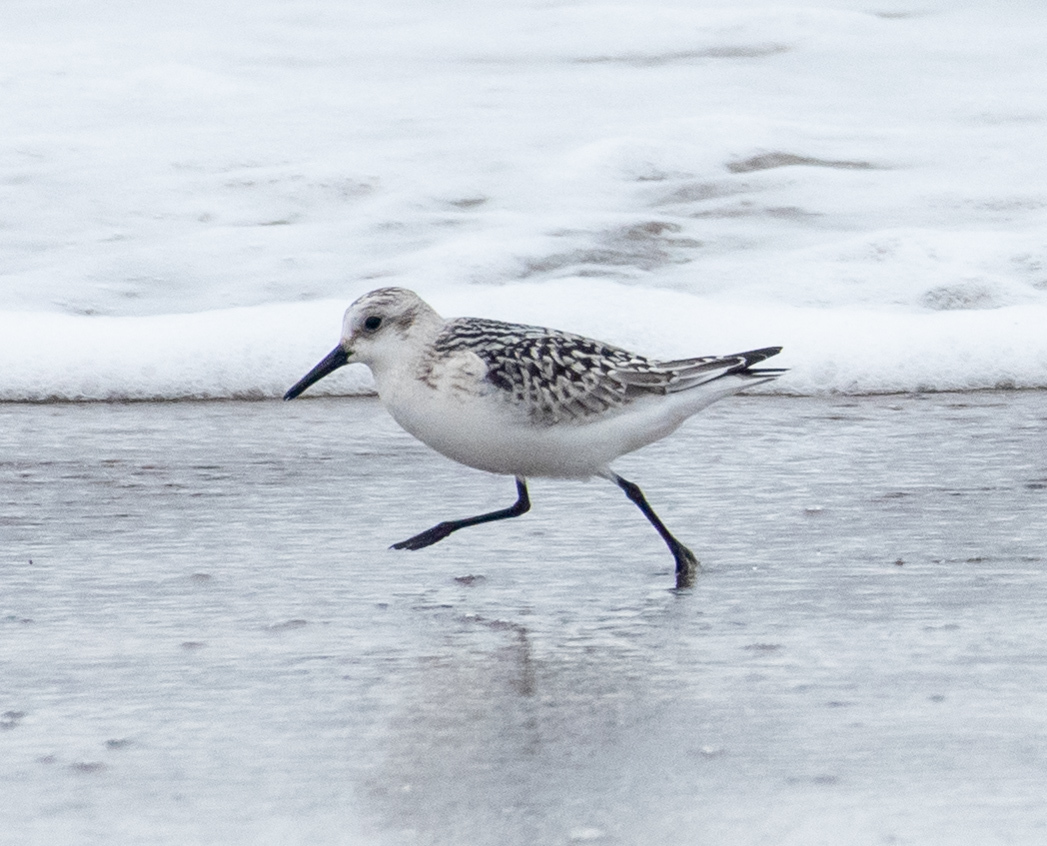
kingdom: Animalia
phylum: Chordata
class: Aves
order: Charadriiformes
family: Scolopacidae
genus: Calidris
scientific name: Calidris alba
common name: Sanderling
